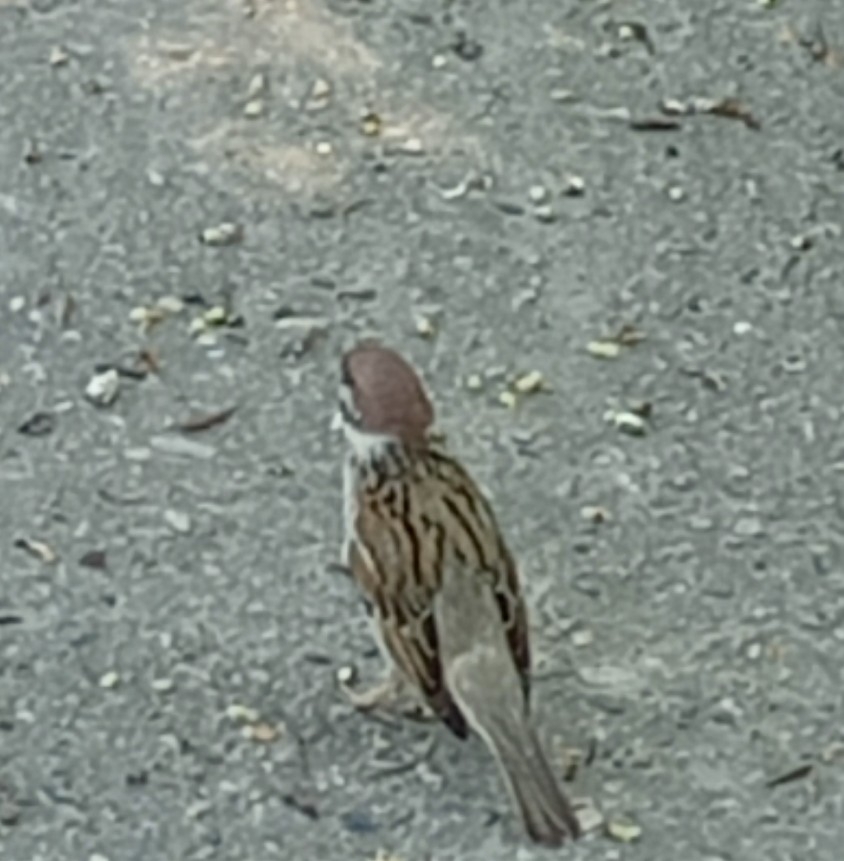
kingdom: Animalia
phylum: Chordata
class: Aves
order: Passeriformes
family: Passeridae
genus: Passer
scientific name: Passer montanus
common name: Eurasian tree sparrow
